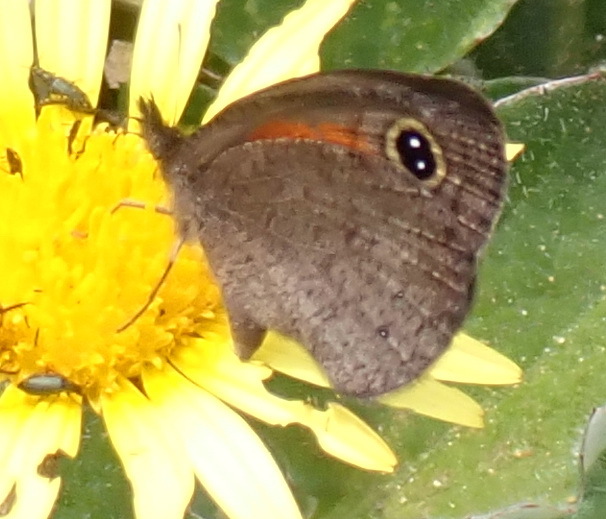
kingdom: Animalia
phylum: Arthropoda
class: Insecta
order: Lepidoptera
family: Nymphalidae
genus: Pseudonympha
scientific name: Pseudonympha magus
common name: Silver-bottom brown
